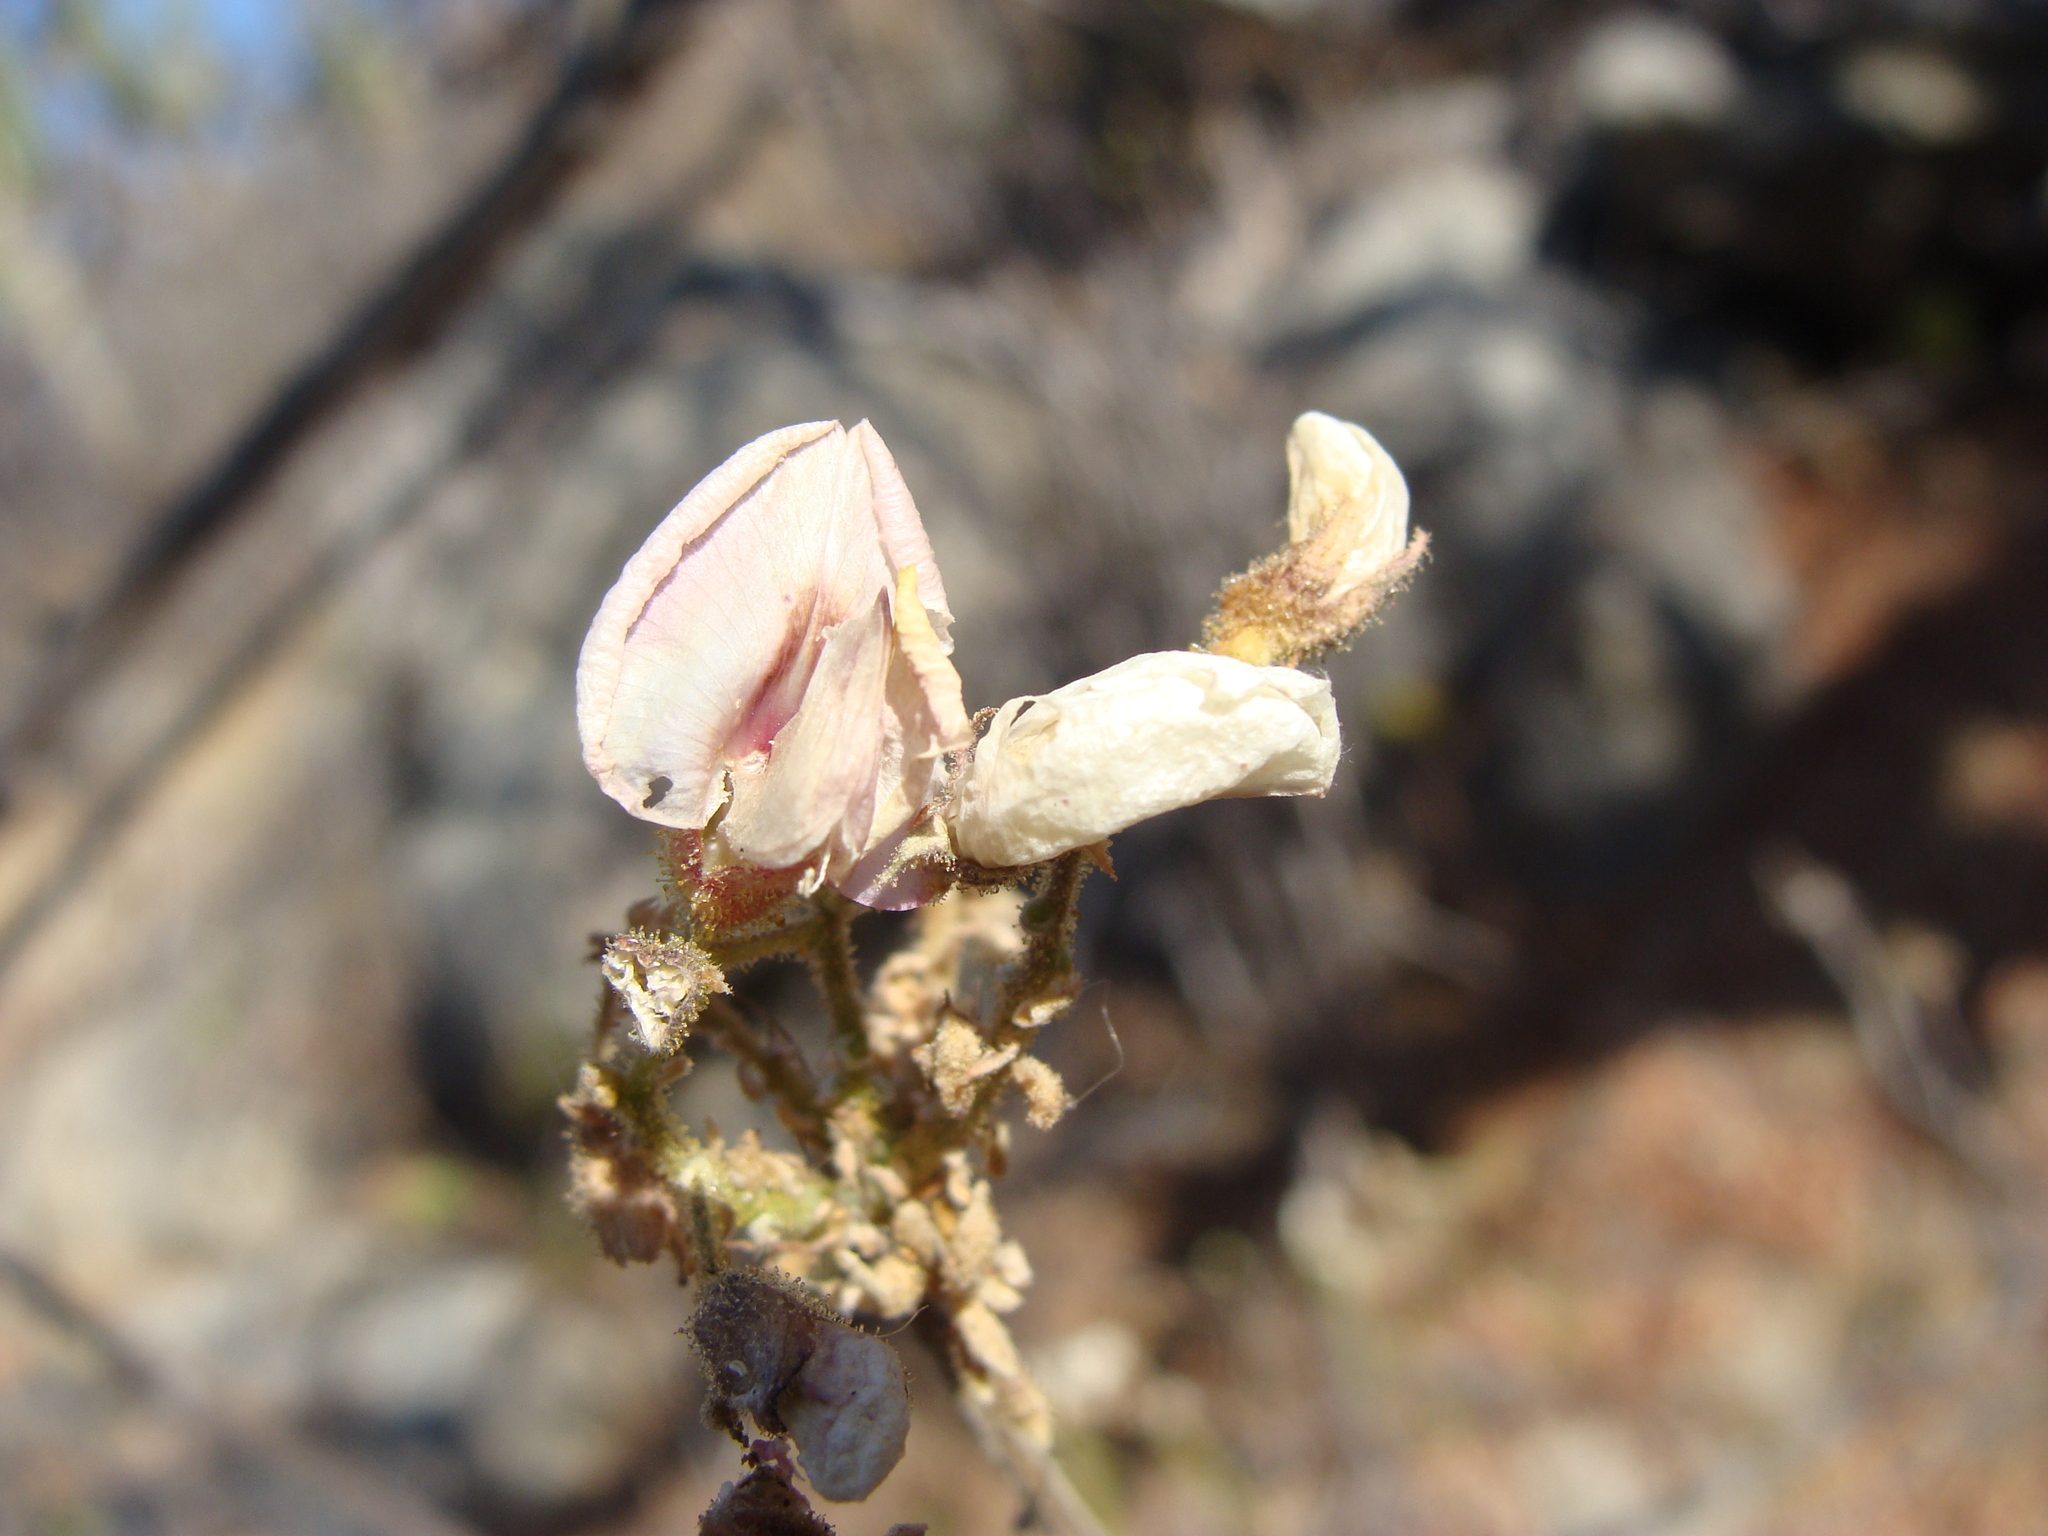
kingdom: Plantae
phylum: Tracheophyta
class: Magnoliopsida
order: Fabales
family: Fabaceae
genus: Coursetia
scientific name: Coursetia glandulosa
